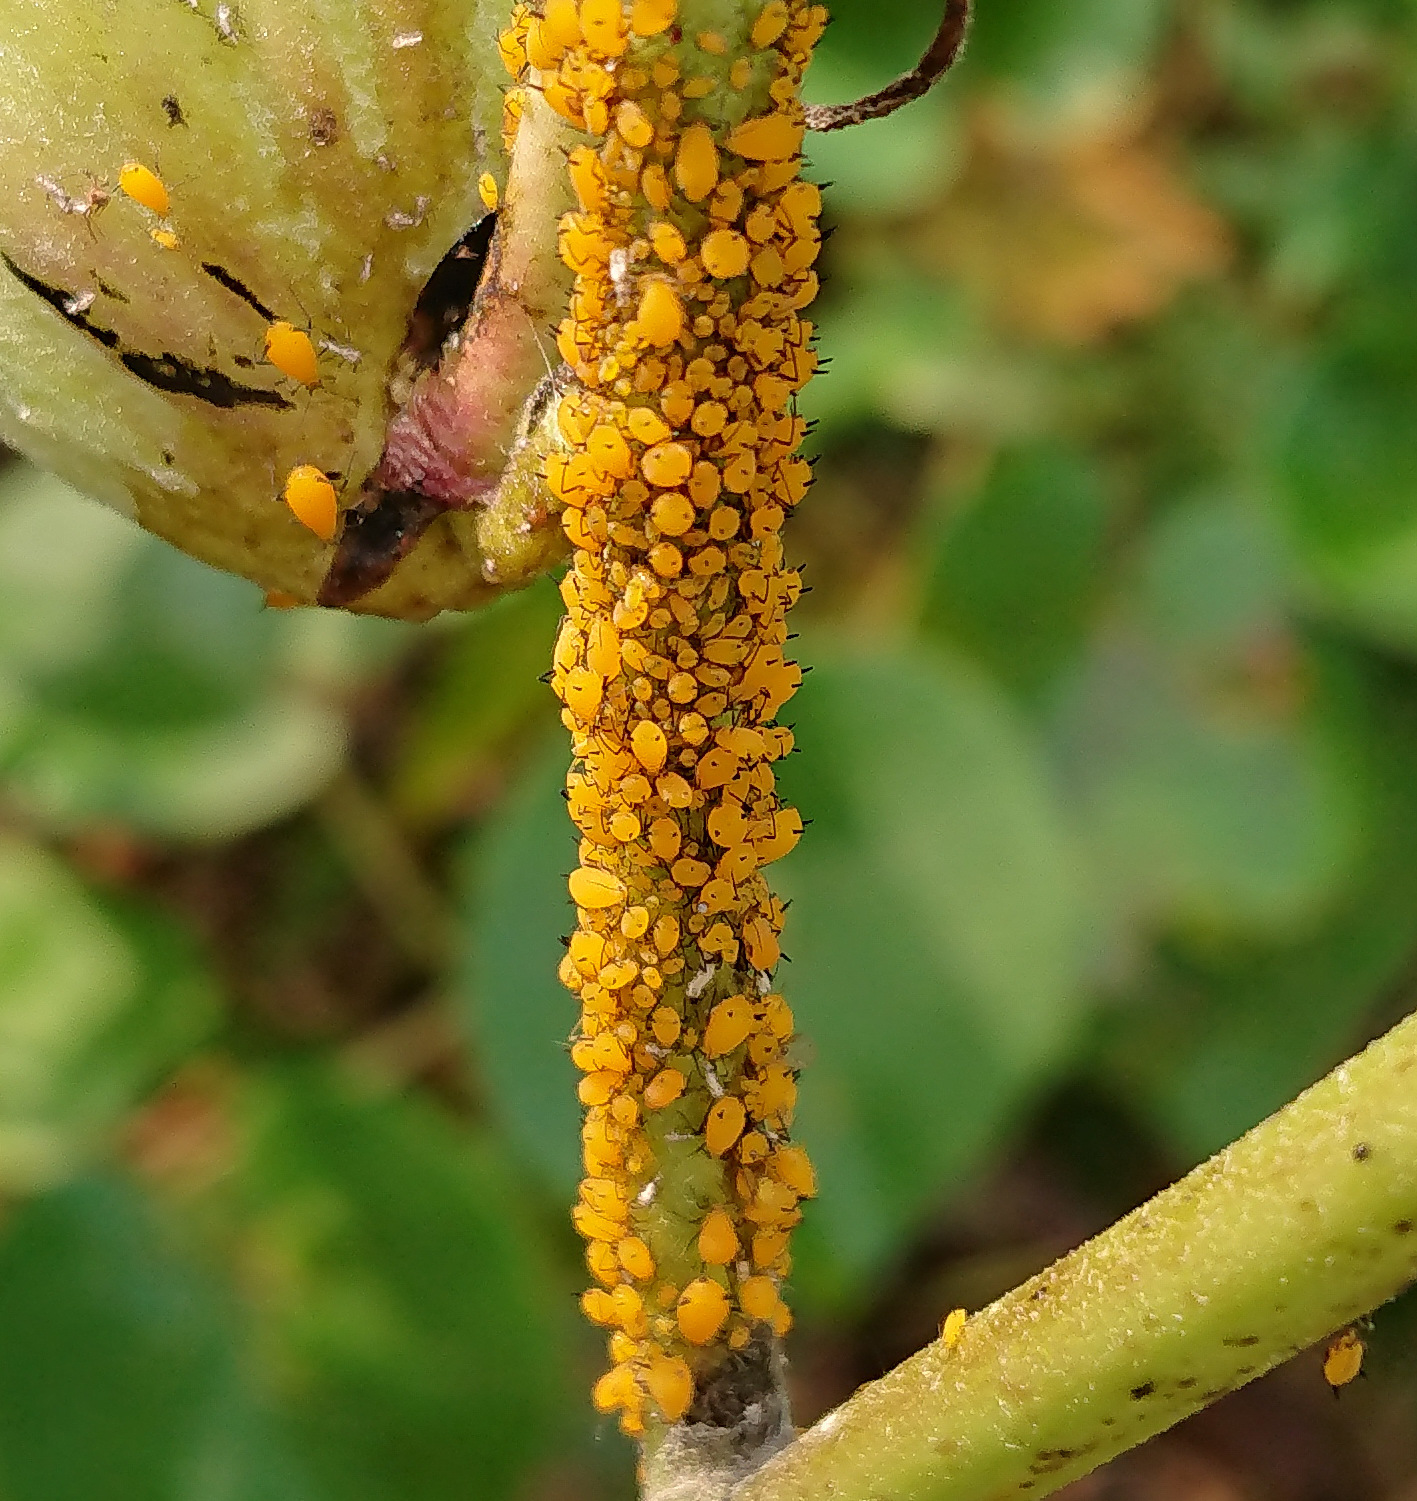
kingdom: Animalia
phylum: Arthropoda
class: Insecta
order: Hemiptera
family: Aphididae
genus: Aphis
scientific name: Aphis nerii
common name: Oleander aphid
